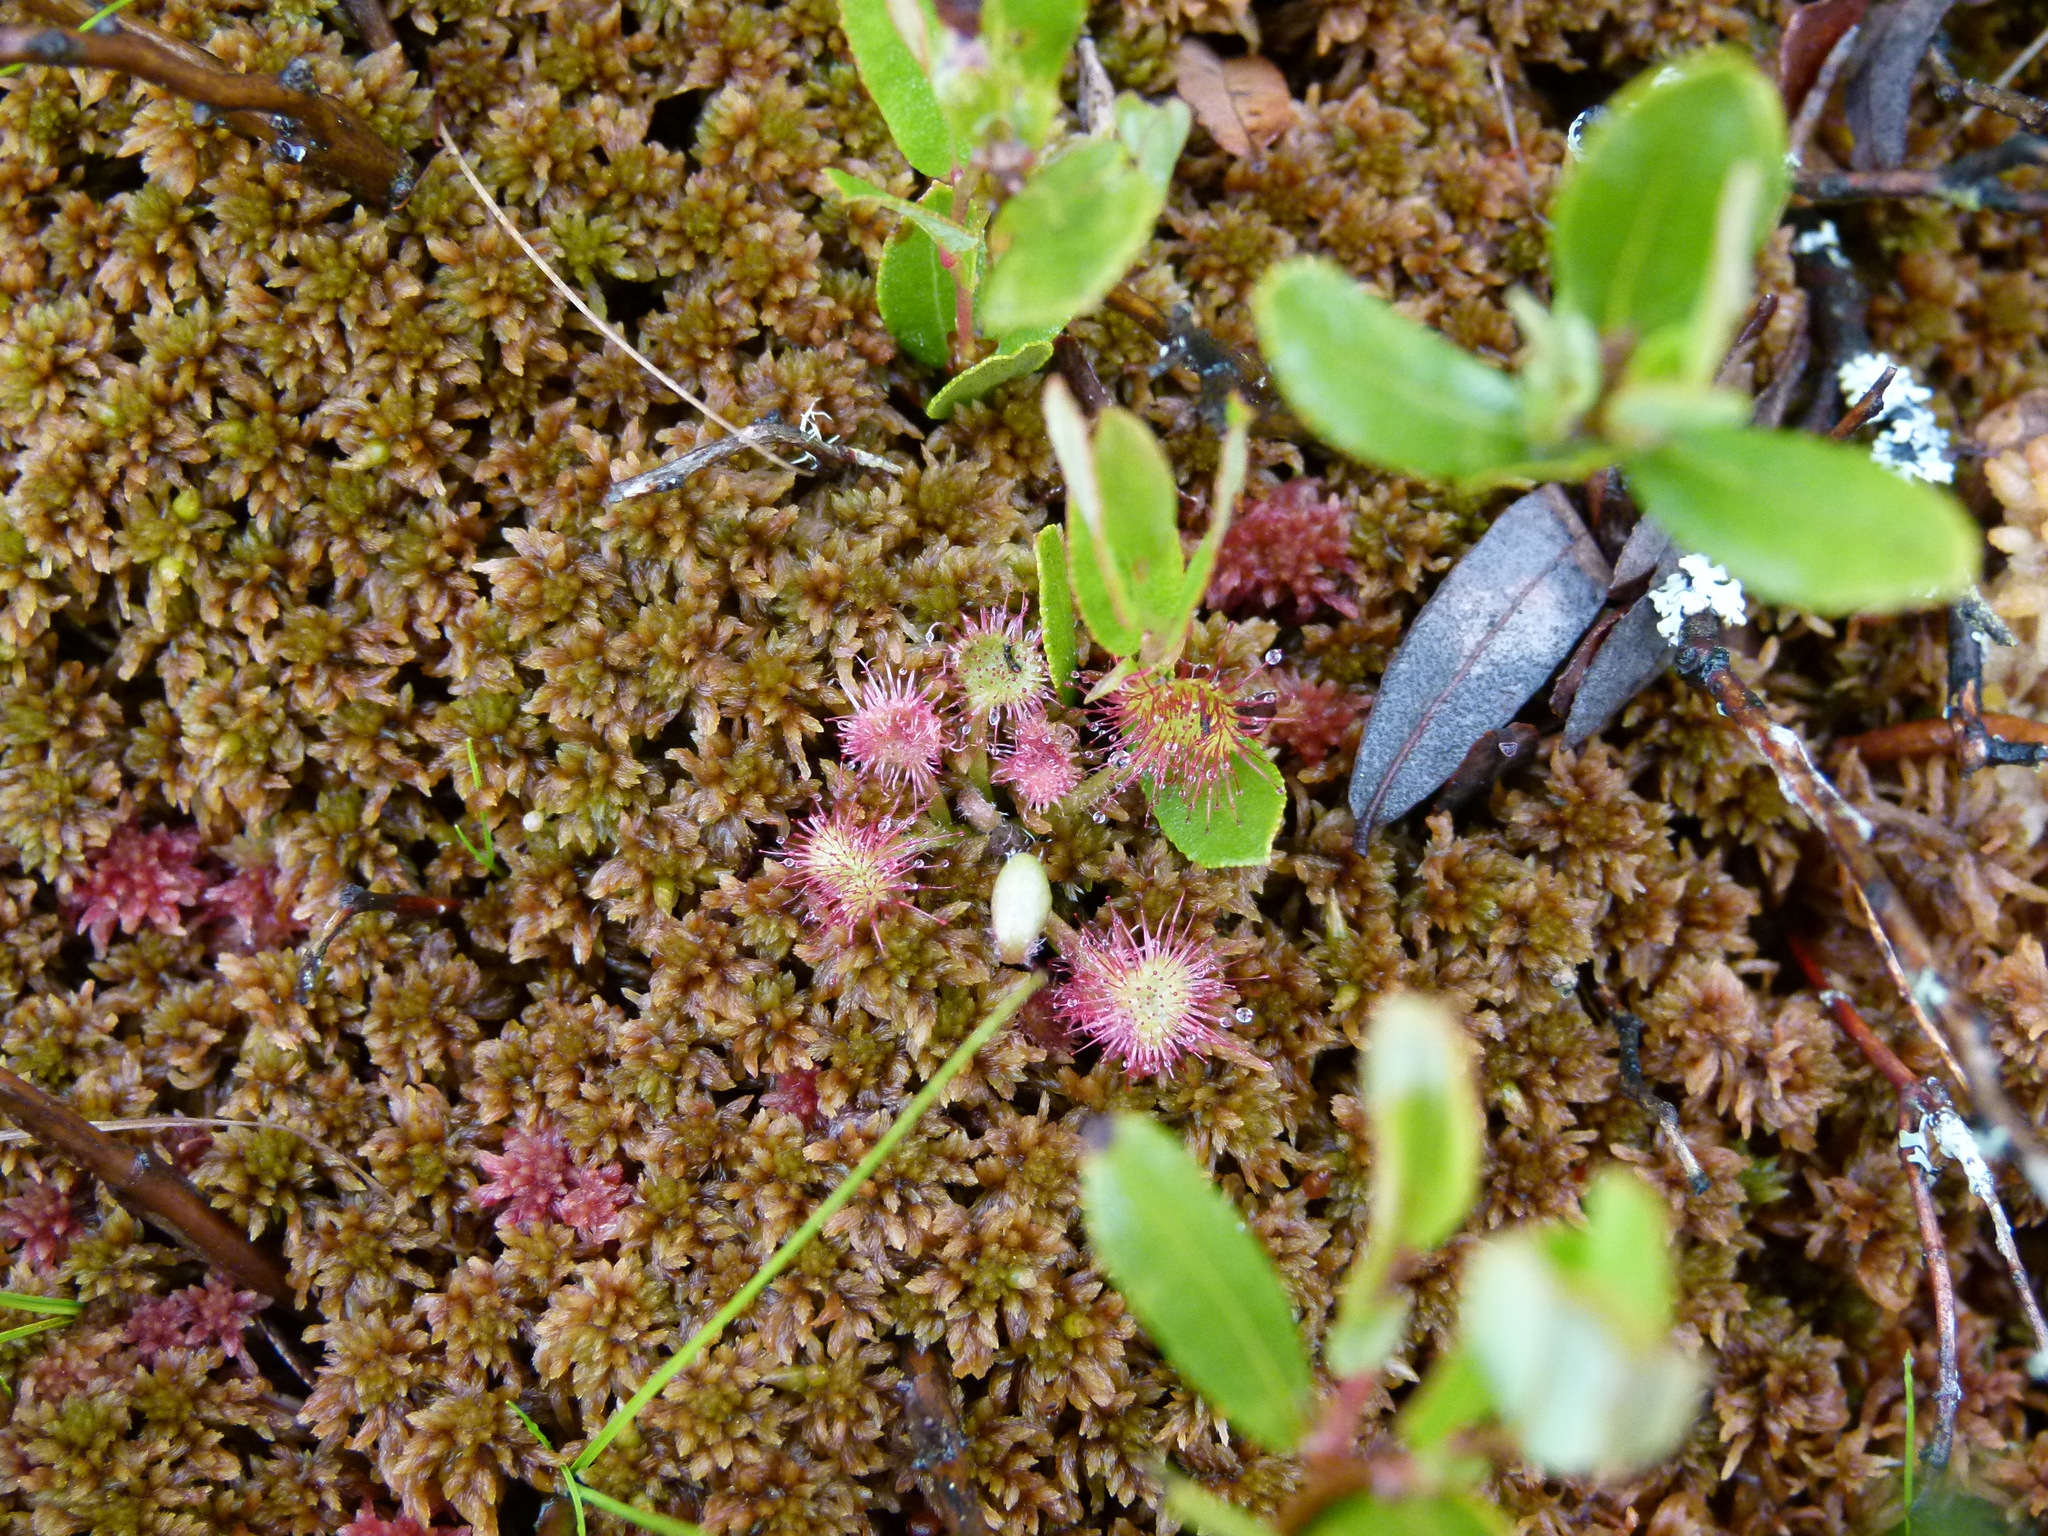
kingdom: Plantae
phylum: Tracheophyta
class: Magnoliopsida
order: Caryophyllales
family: Droseraceae
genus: Drosera
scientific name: Drosera rotundifolia
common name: Round-leaved sundew
